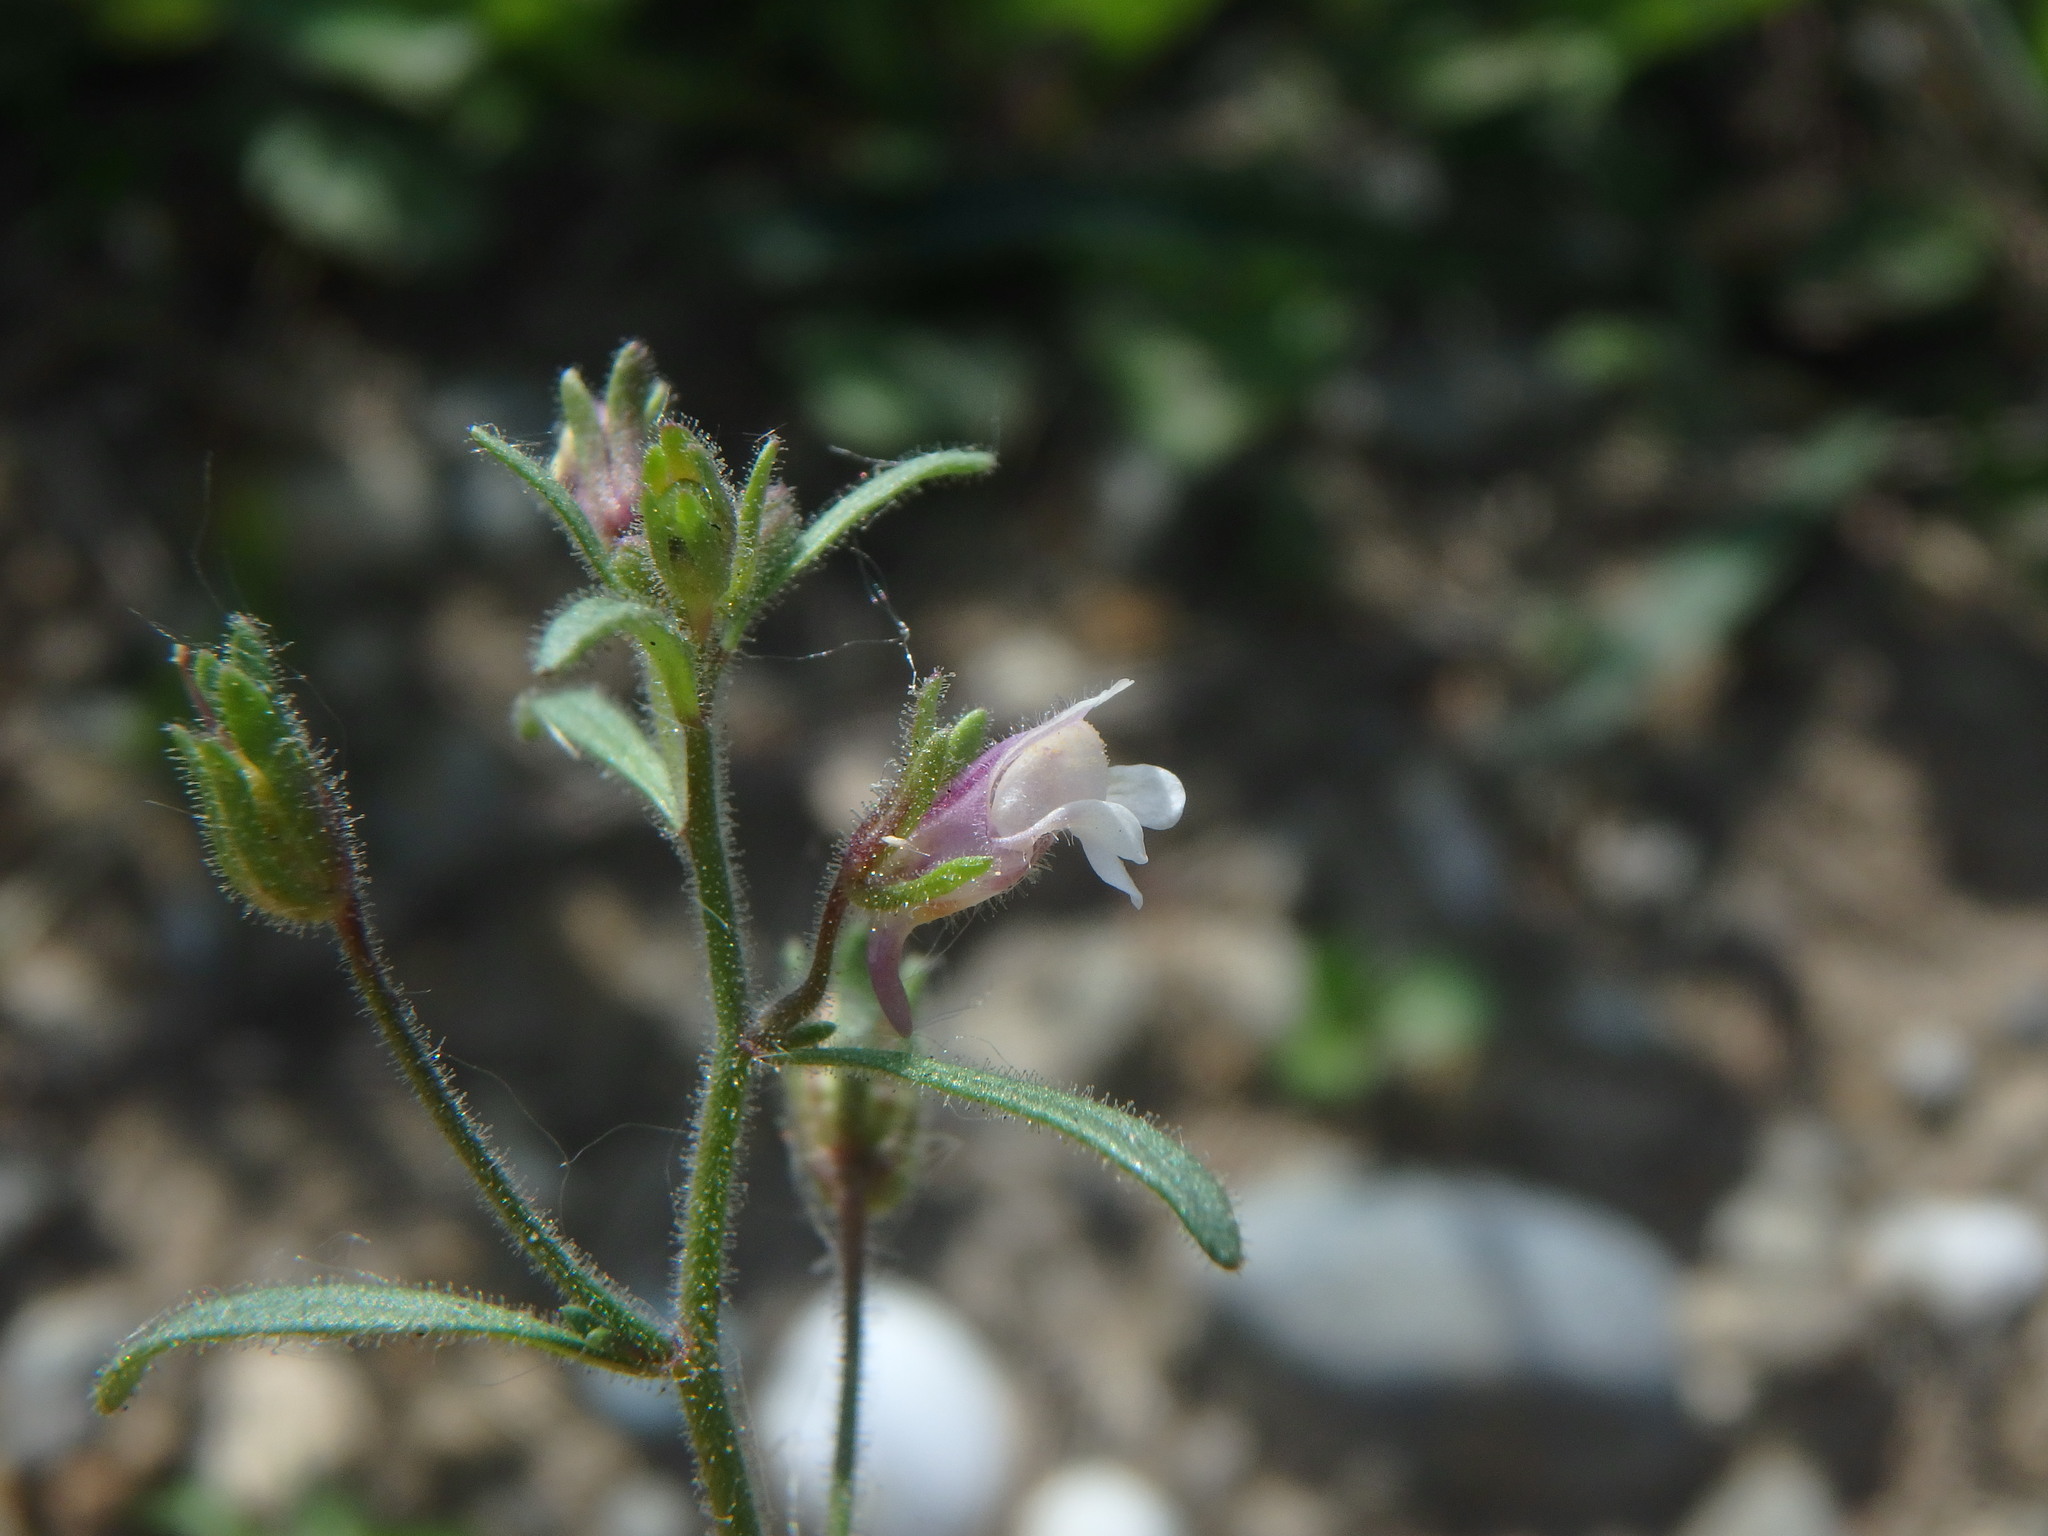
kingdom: Plantae
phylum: Tracheophyta
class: Magnoliopsida
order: Lamiales
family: Plantaginaceae
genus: Chaenorhinum
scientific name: Chaenorhinum minus
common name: Dwarf snapdragon
